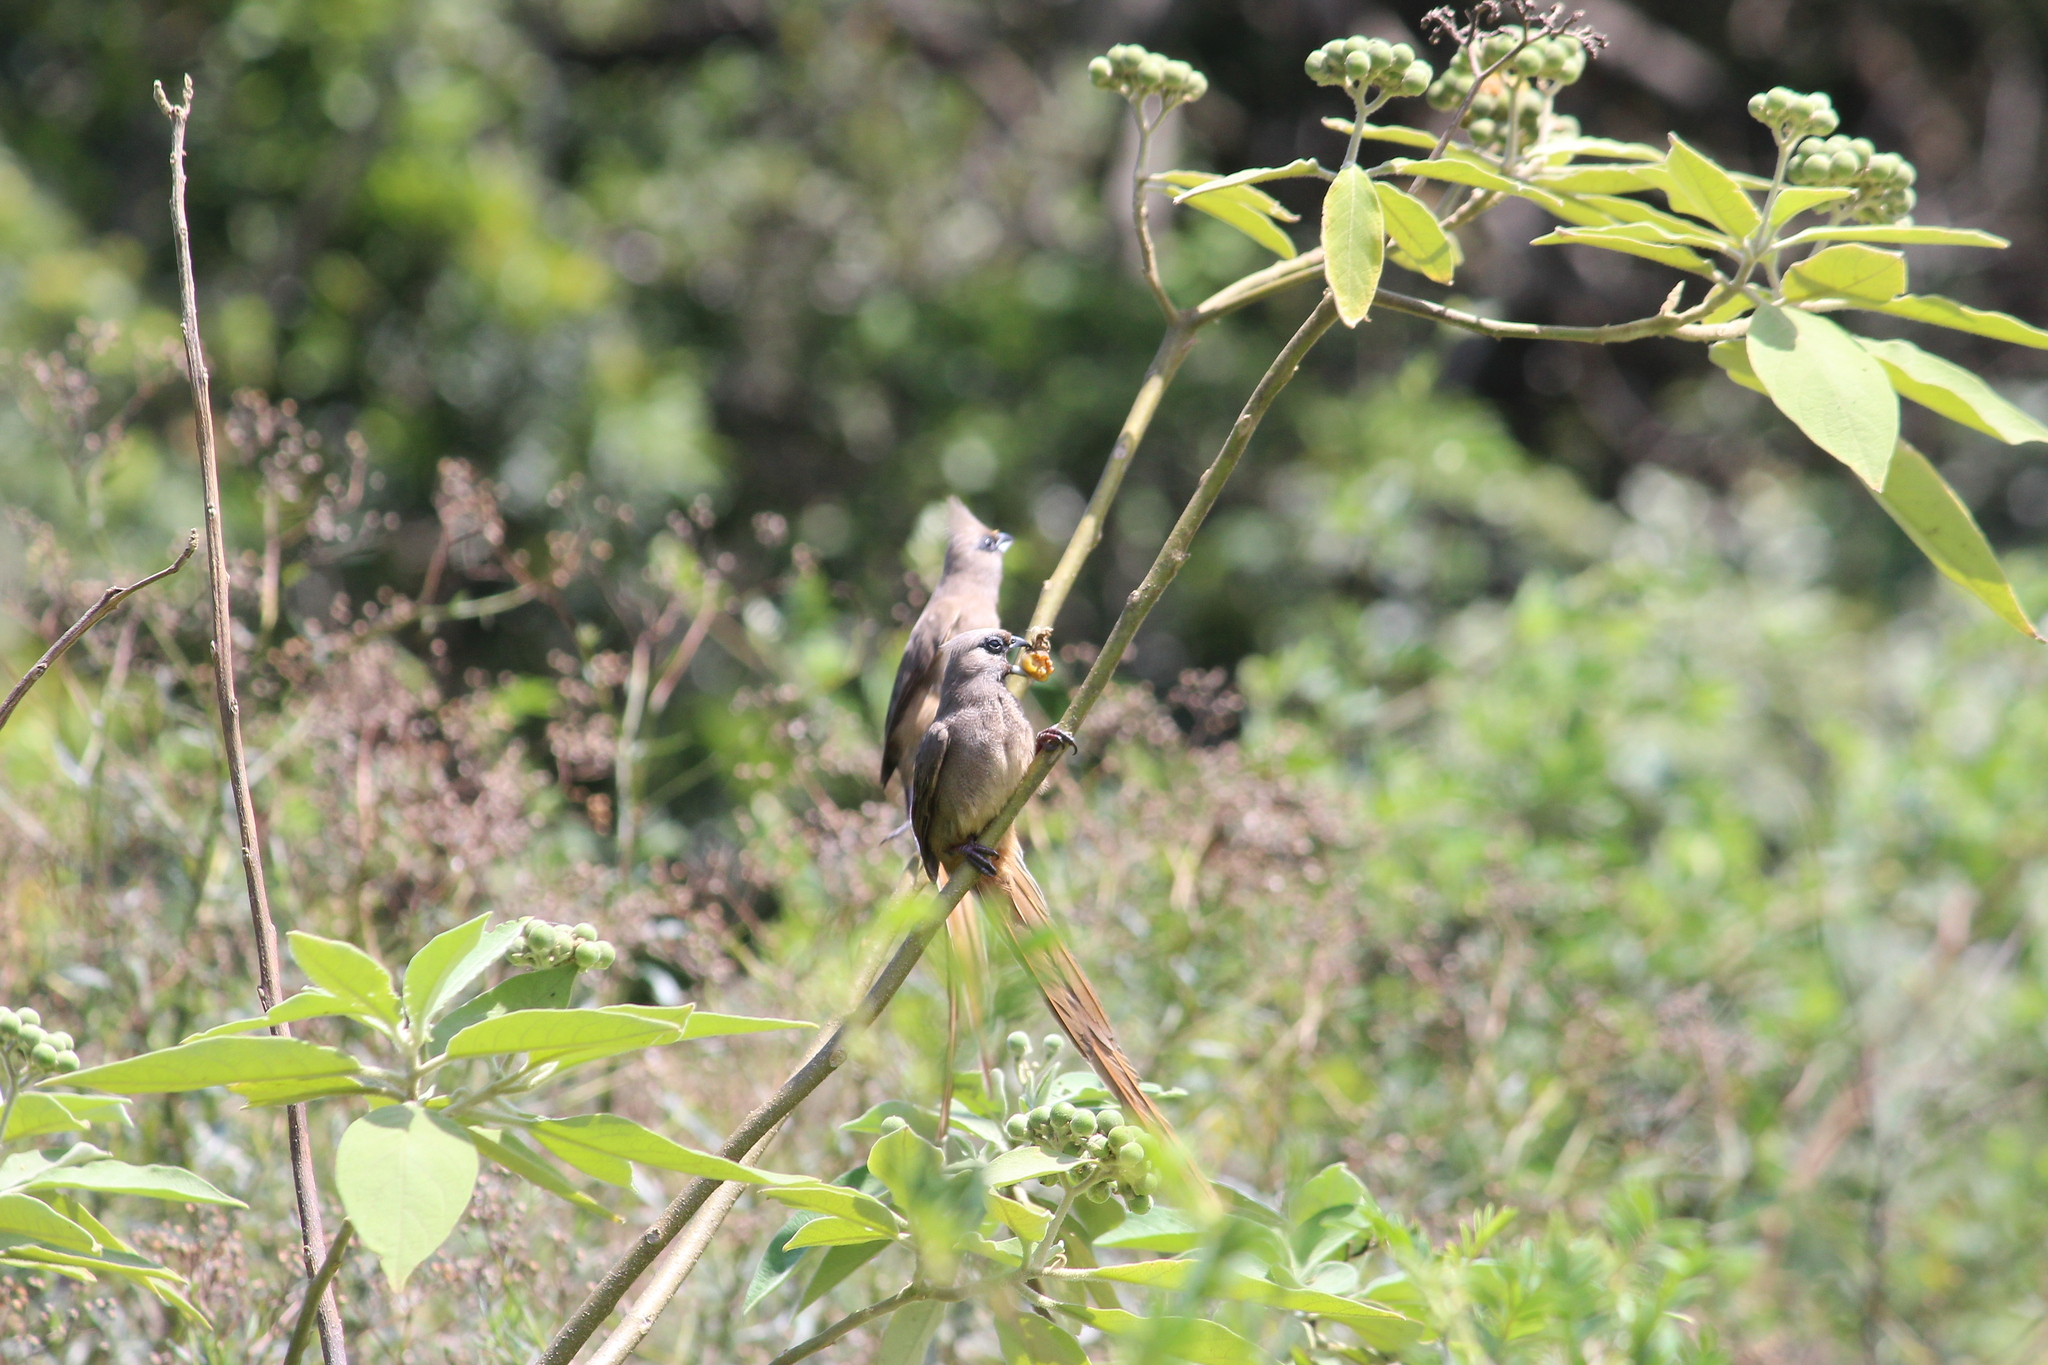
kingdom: Animalia
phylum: Chordata
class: Aves
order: Coliiformes
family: Coliidae
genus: Colius
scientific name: Colius striatus
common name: Speckled mousebird
